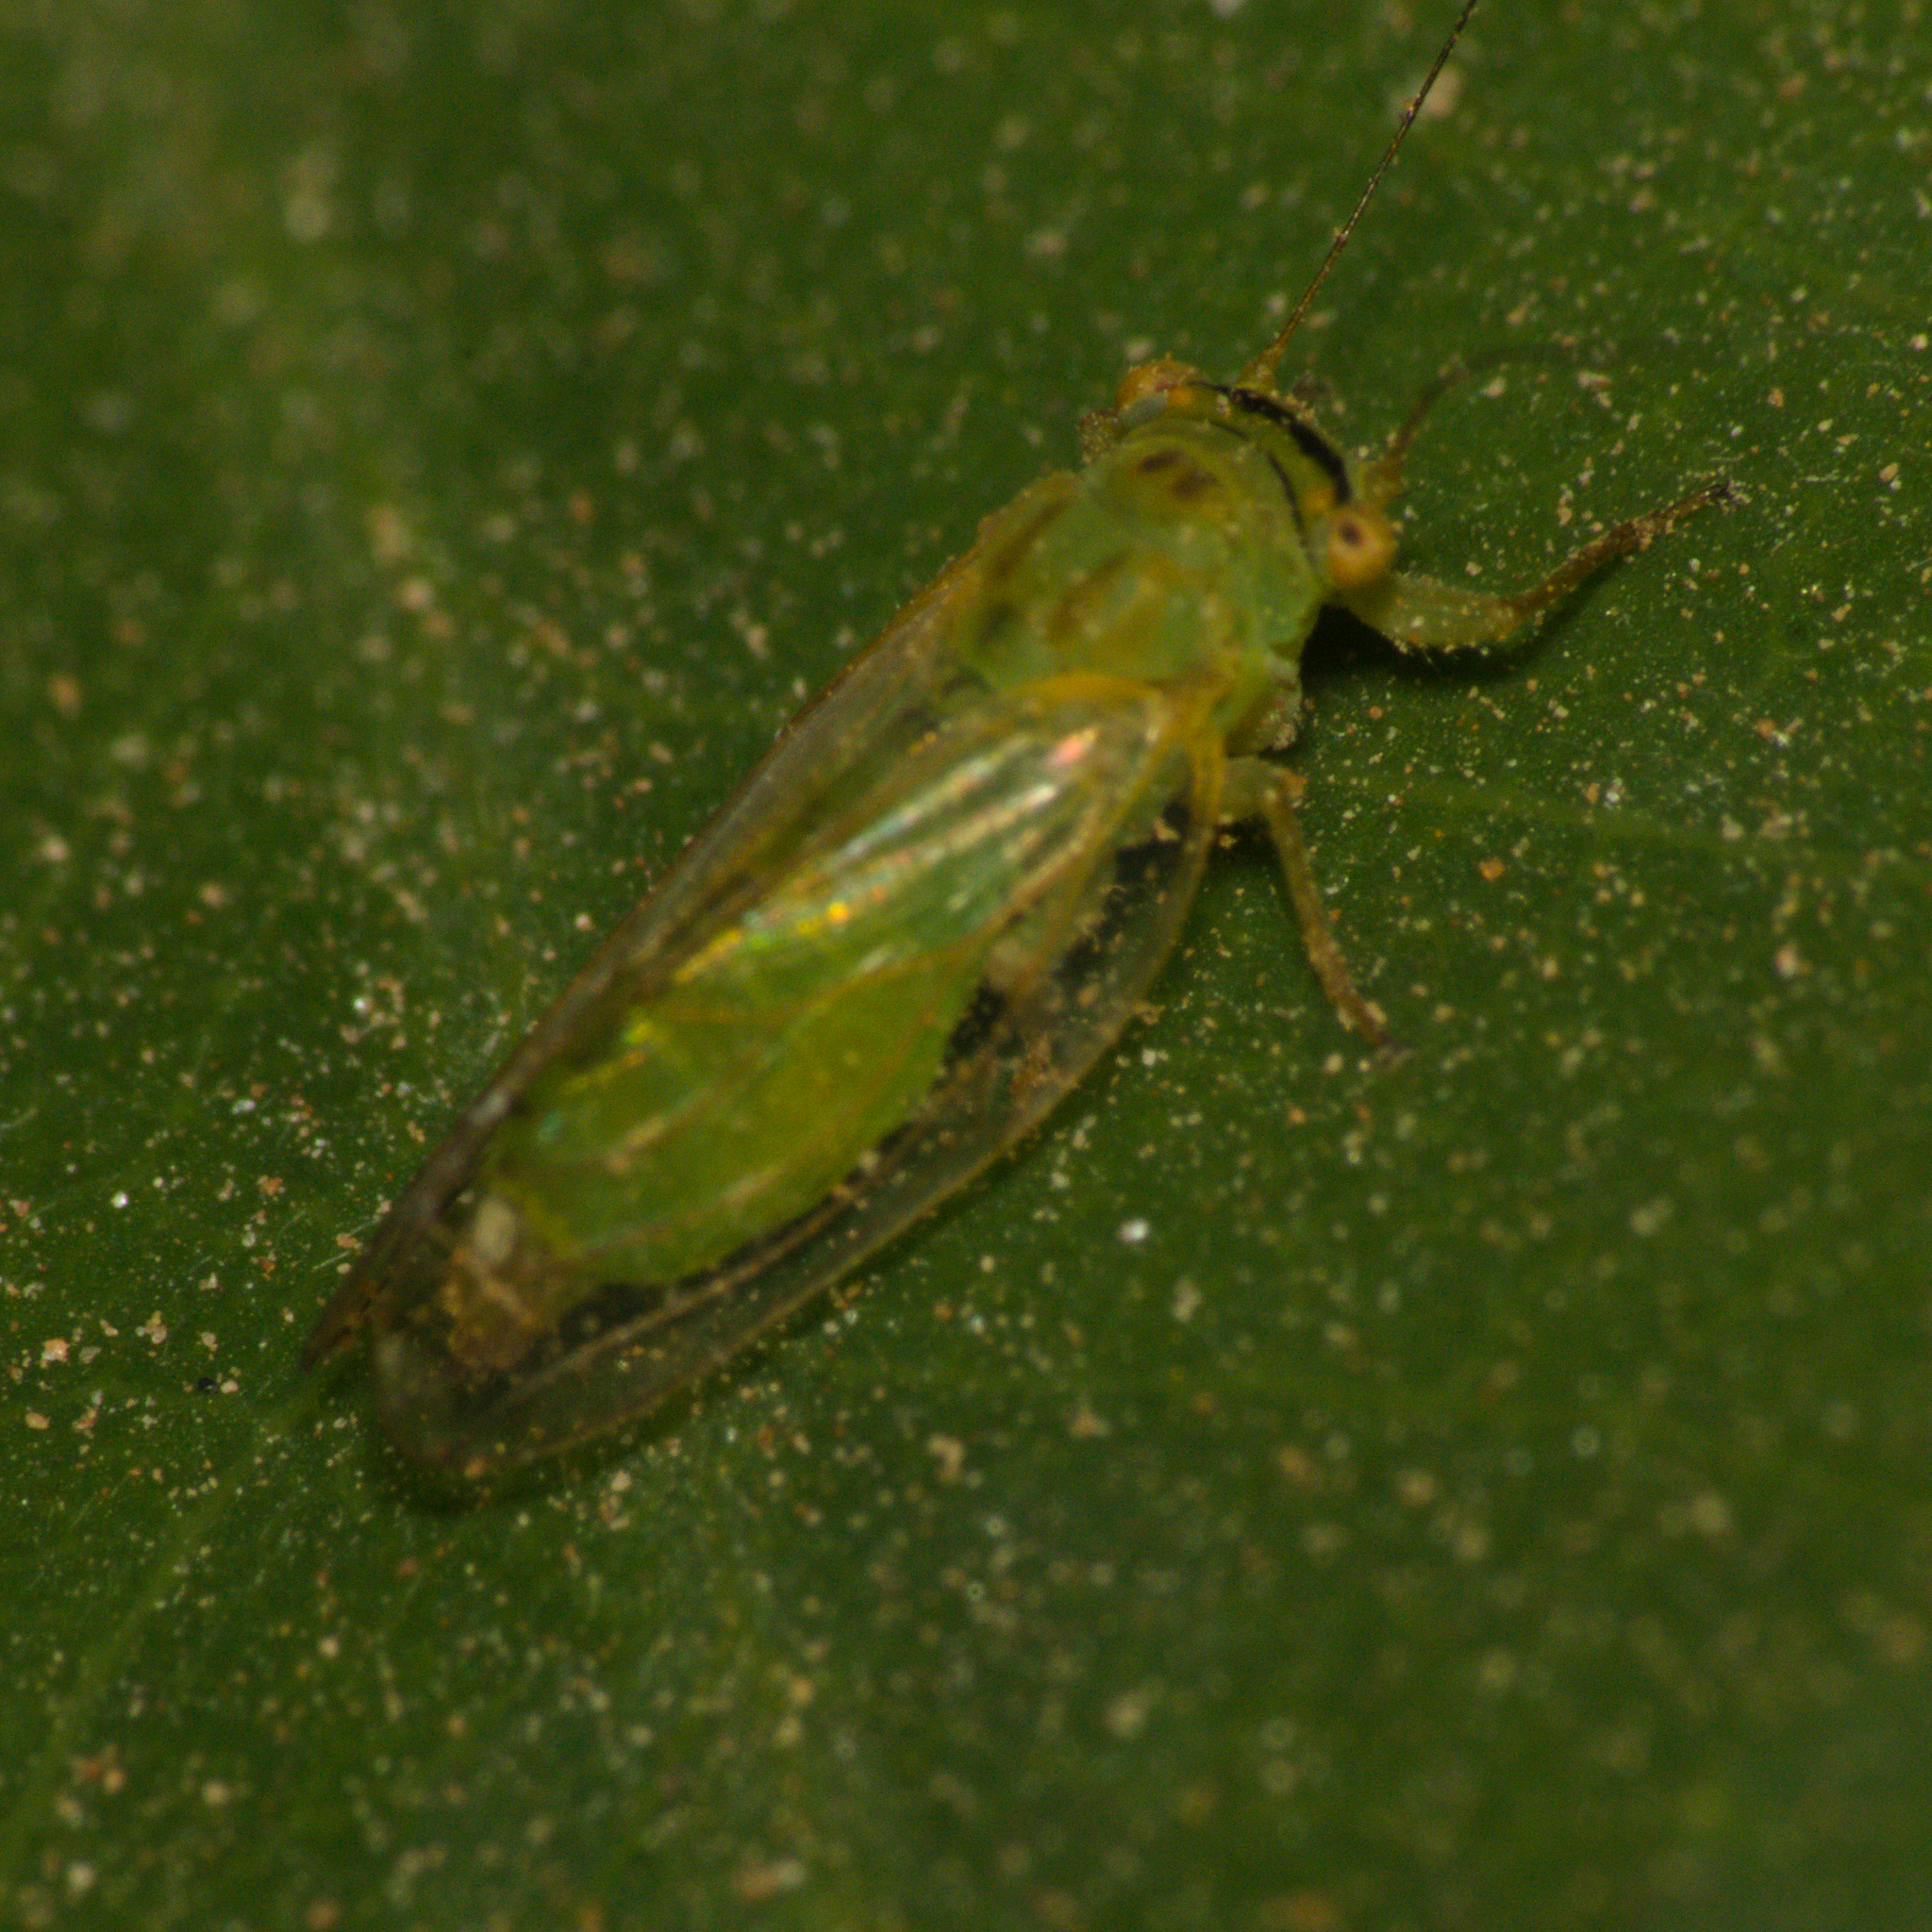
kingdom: Animalia
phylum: Arthropoda
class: Insecta
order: Hemiptera
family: Psyllidae
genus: Platycorypha
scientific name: Platycorypha nigrivirga
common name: Tipu psyllid
